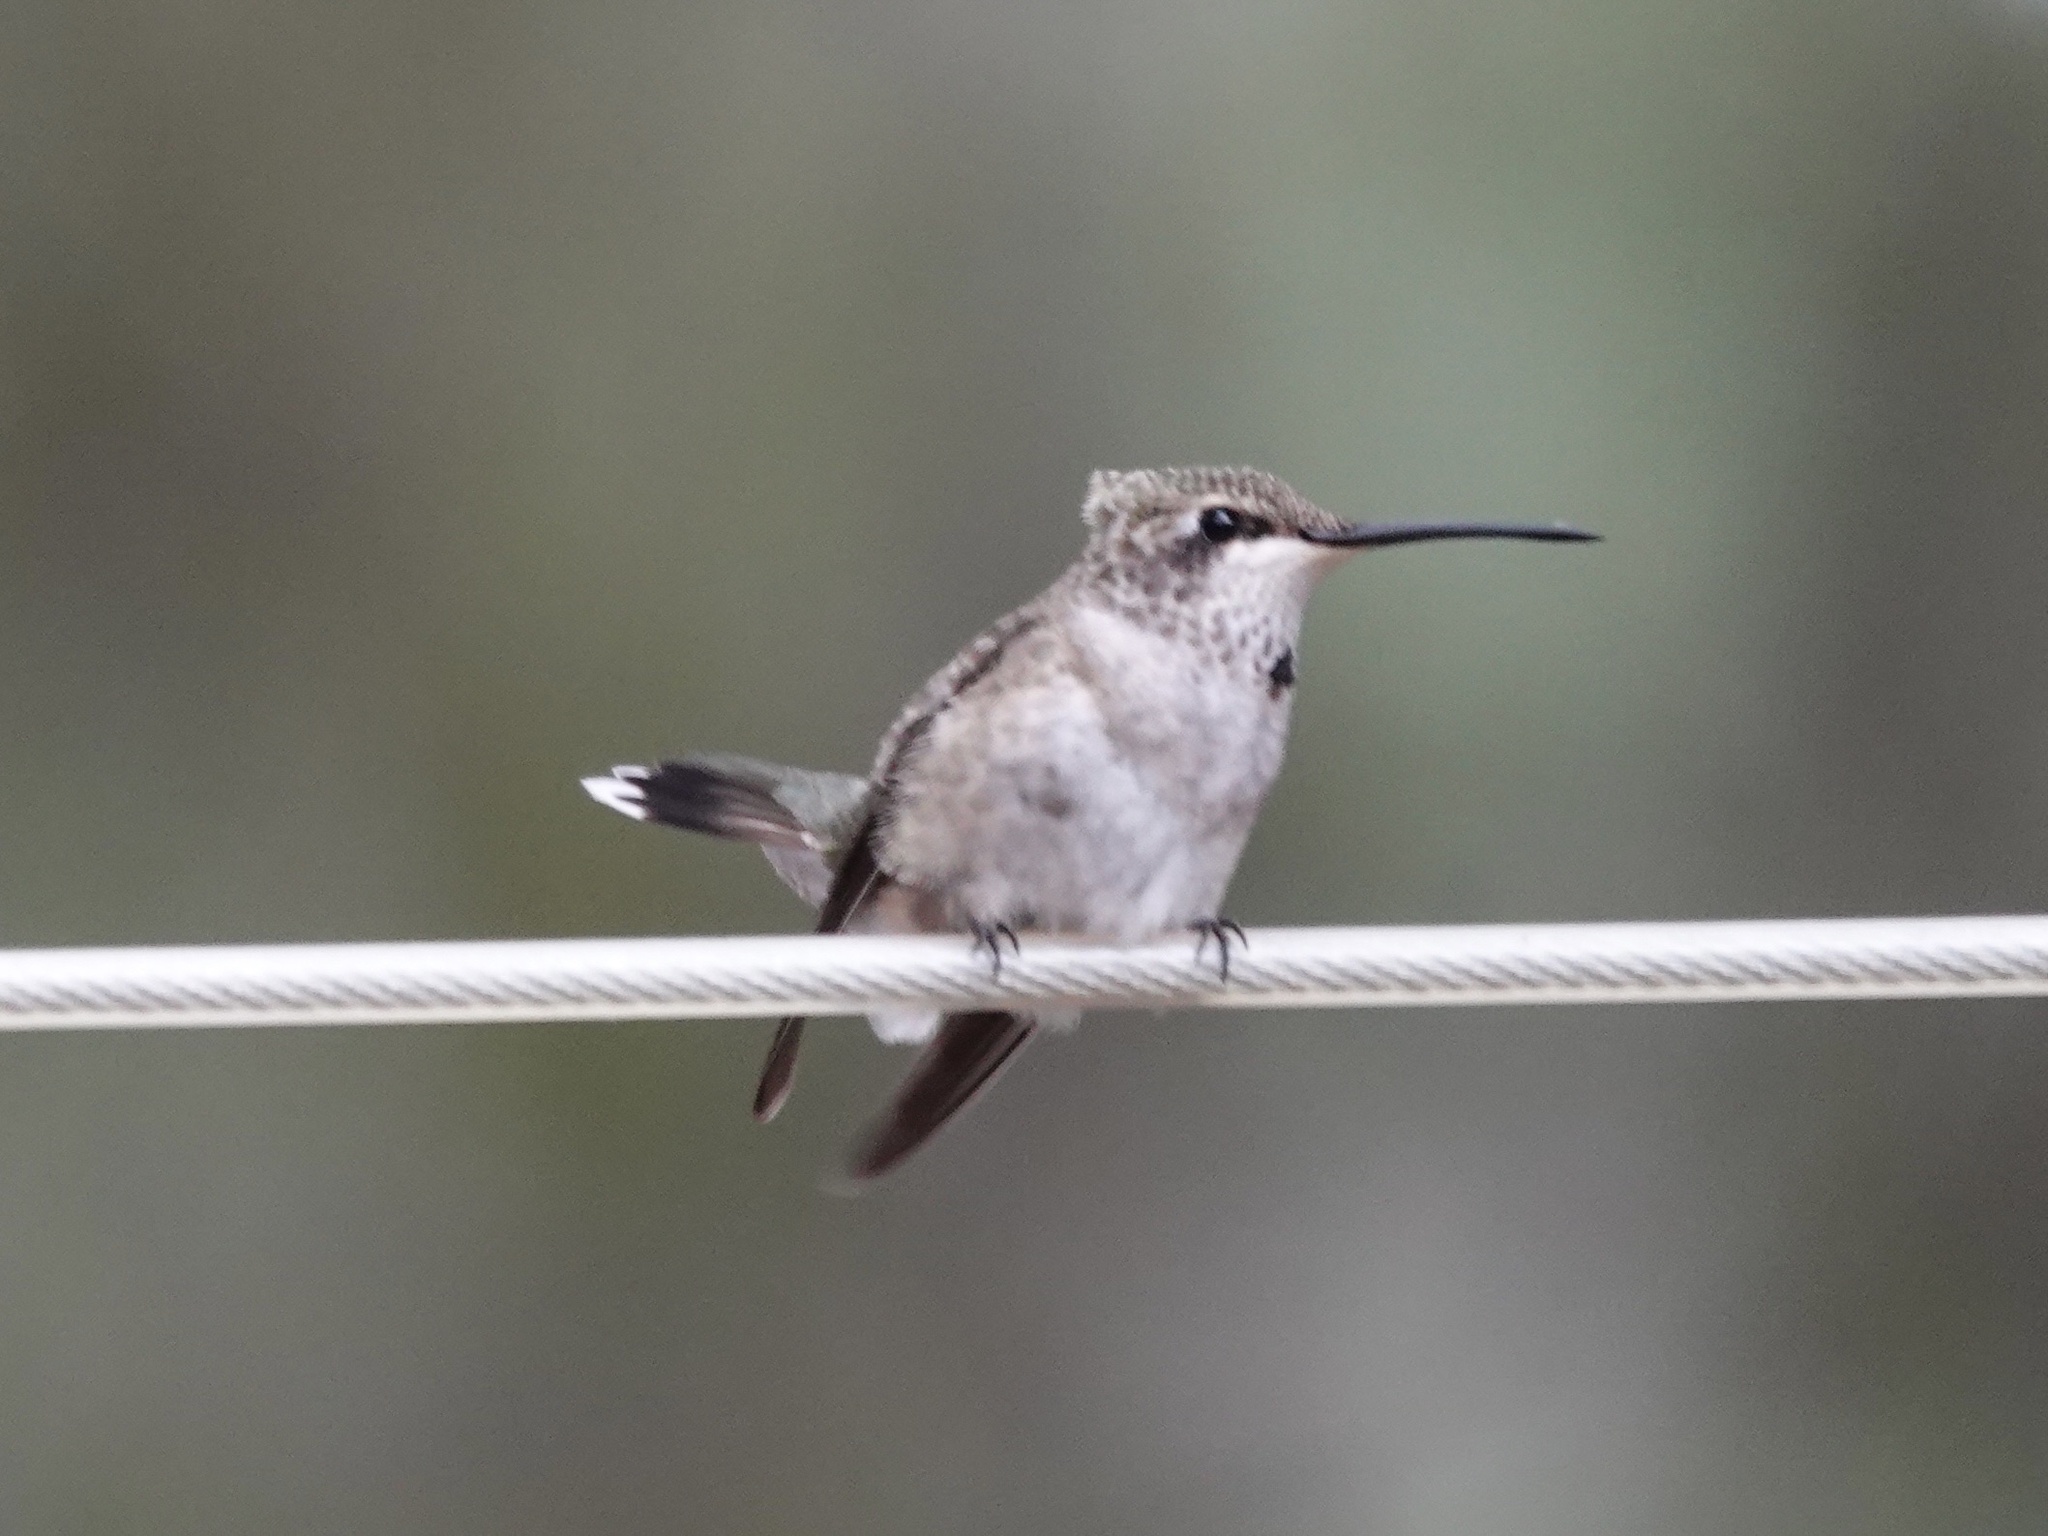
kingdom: Animalia
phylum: Chordata
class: Aves
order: Apodiformes
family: Trochilidae
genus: Archilochus
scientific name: Archilochus alexandri
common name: Black-chinned hummingbird
